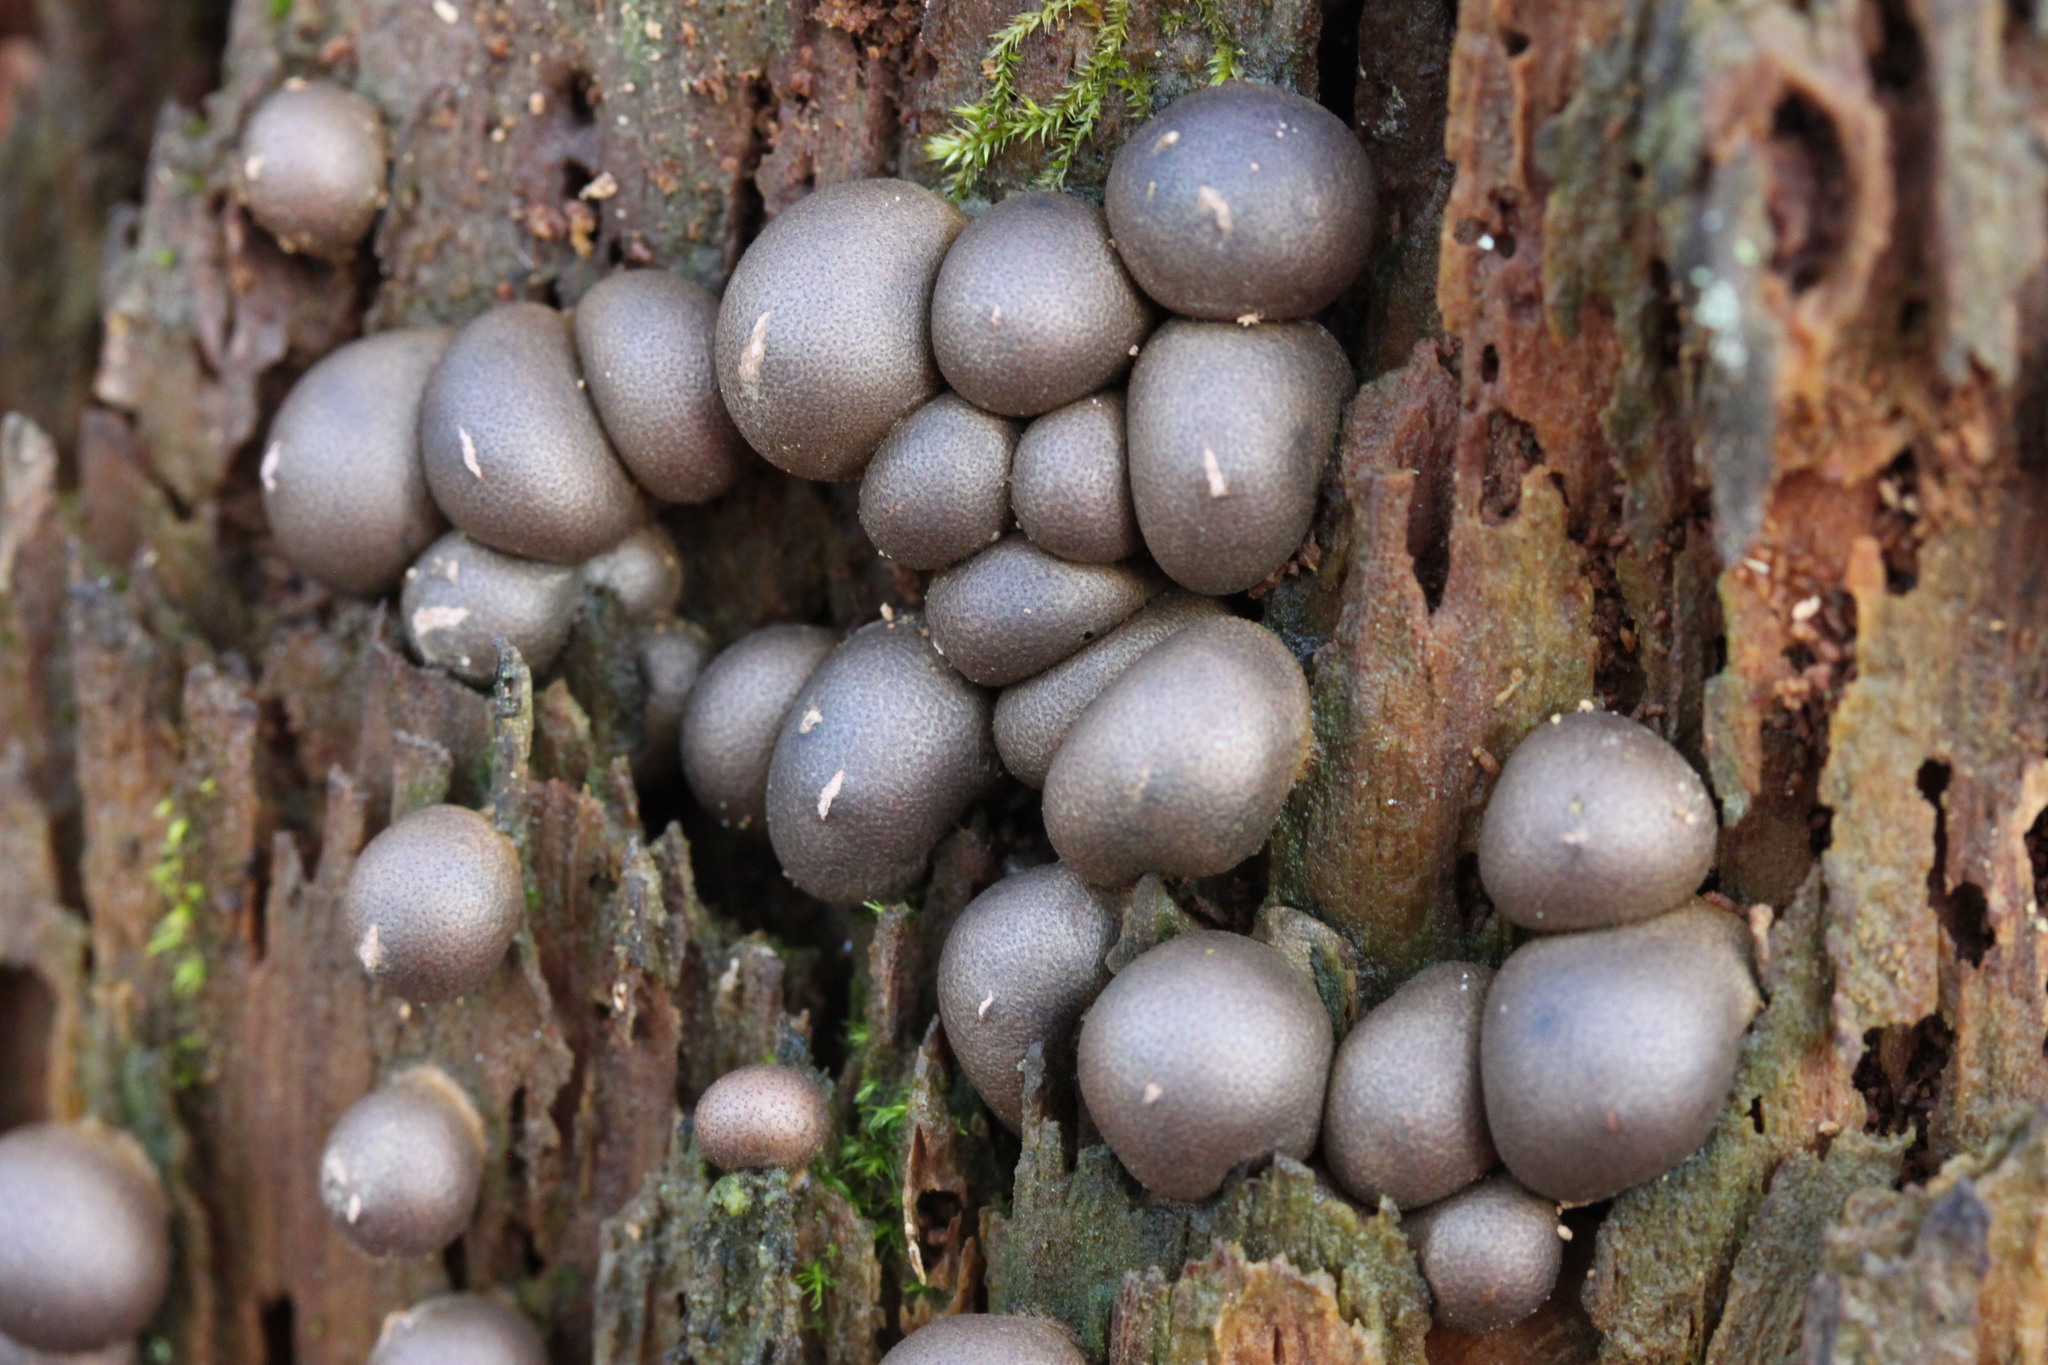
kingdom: Protozoa
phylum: Mycetozoa
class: Myxomycetes
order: Cribrariales
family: Tubiferaceae
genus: Lycogala
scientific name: Lycogala epidendrum
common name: Wolf's milk
